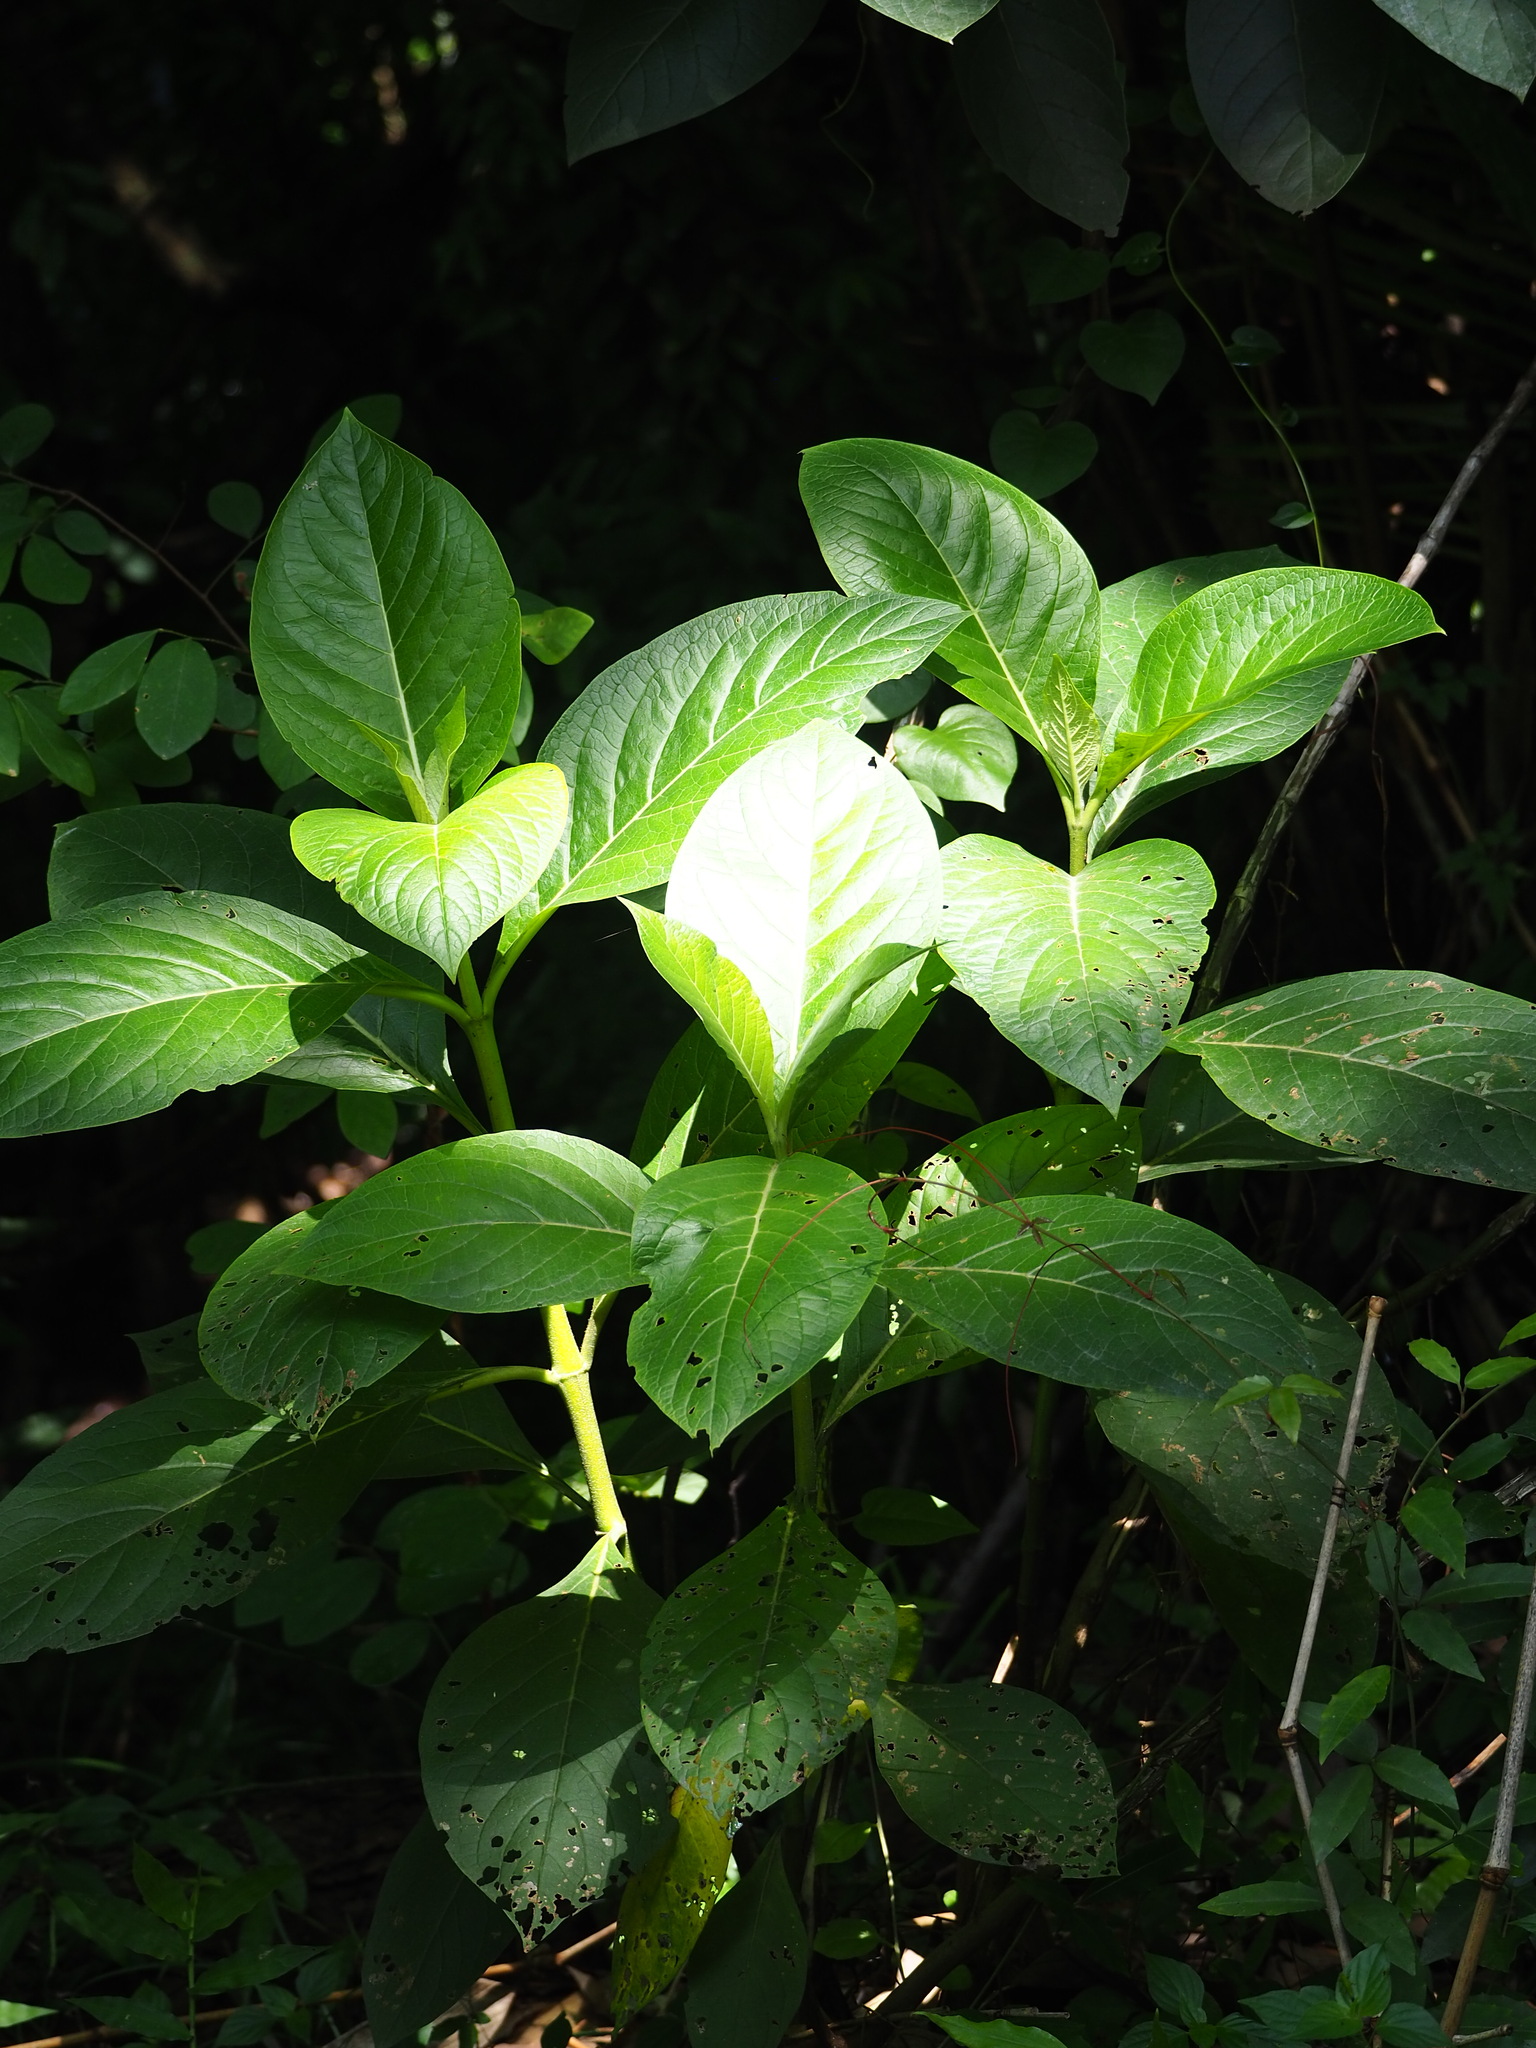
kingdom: Plantae
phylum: Tracheophyta
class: Magnoliopsida
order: Boraginales
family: Boraginaceae
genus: Trichodesma
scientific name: Trichodesma calycosum
